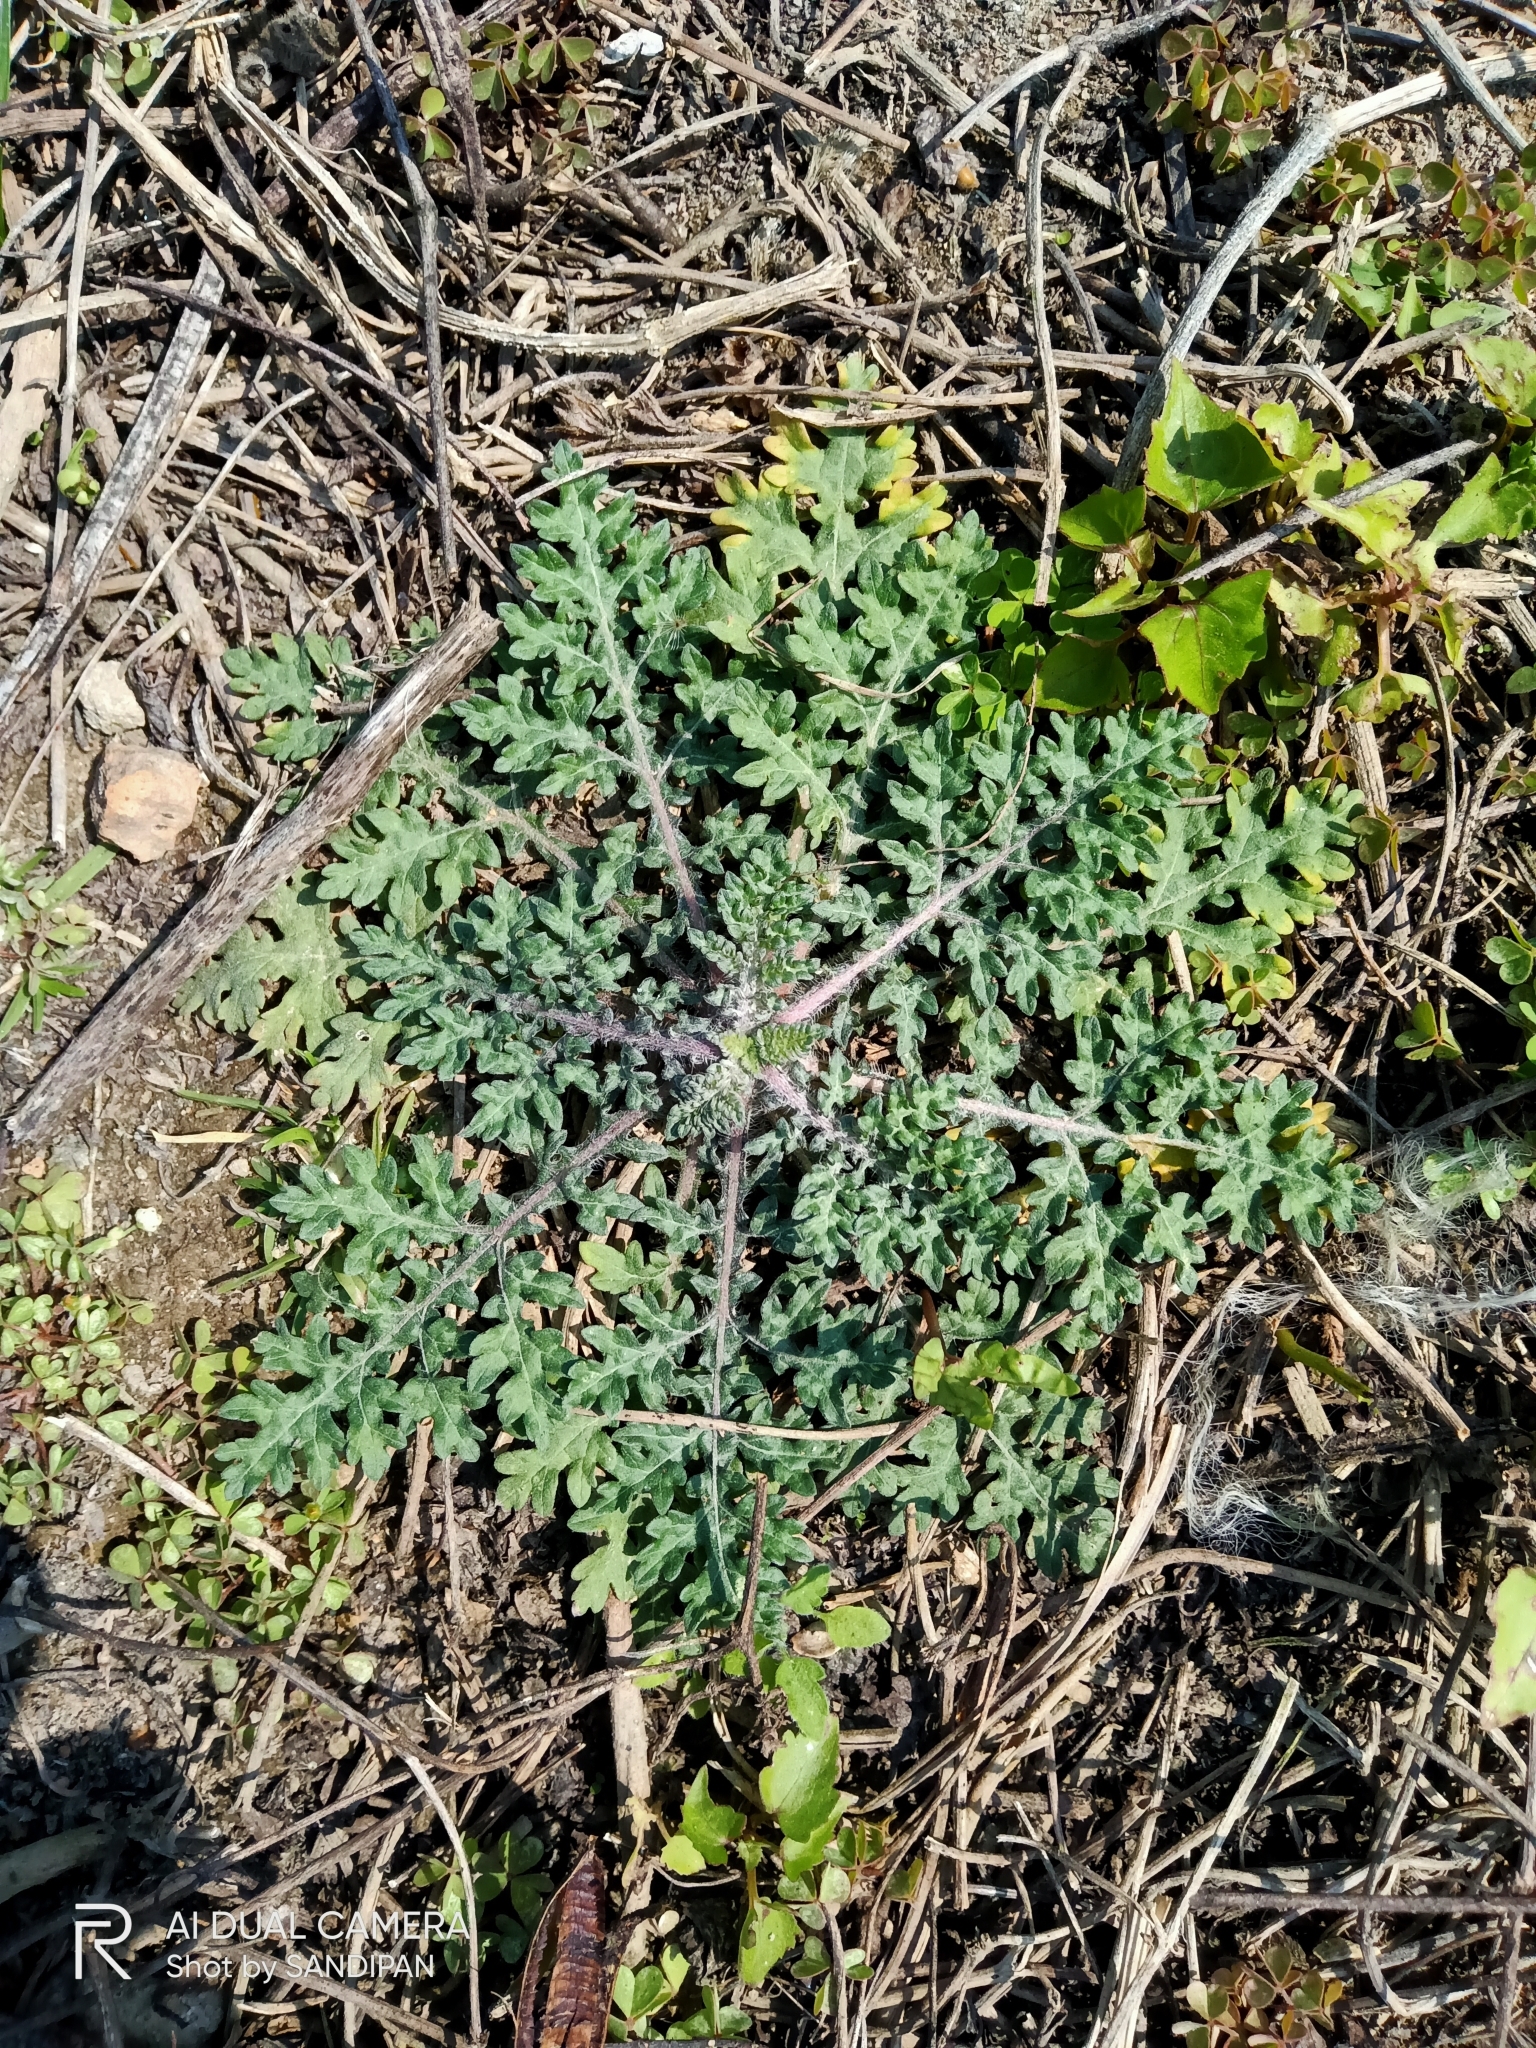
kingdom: Plantae
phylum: Tracheophyta
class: Magnoliopsida
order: Asterales
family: Asteraceae
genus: Parthenium
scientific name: Parthenium hysterophorus
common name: Santa maria feverfew
